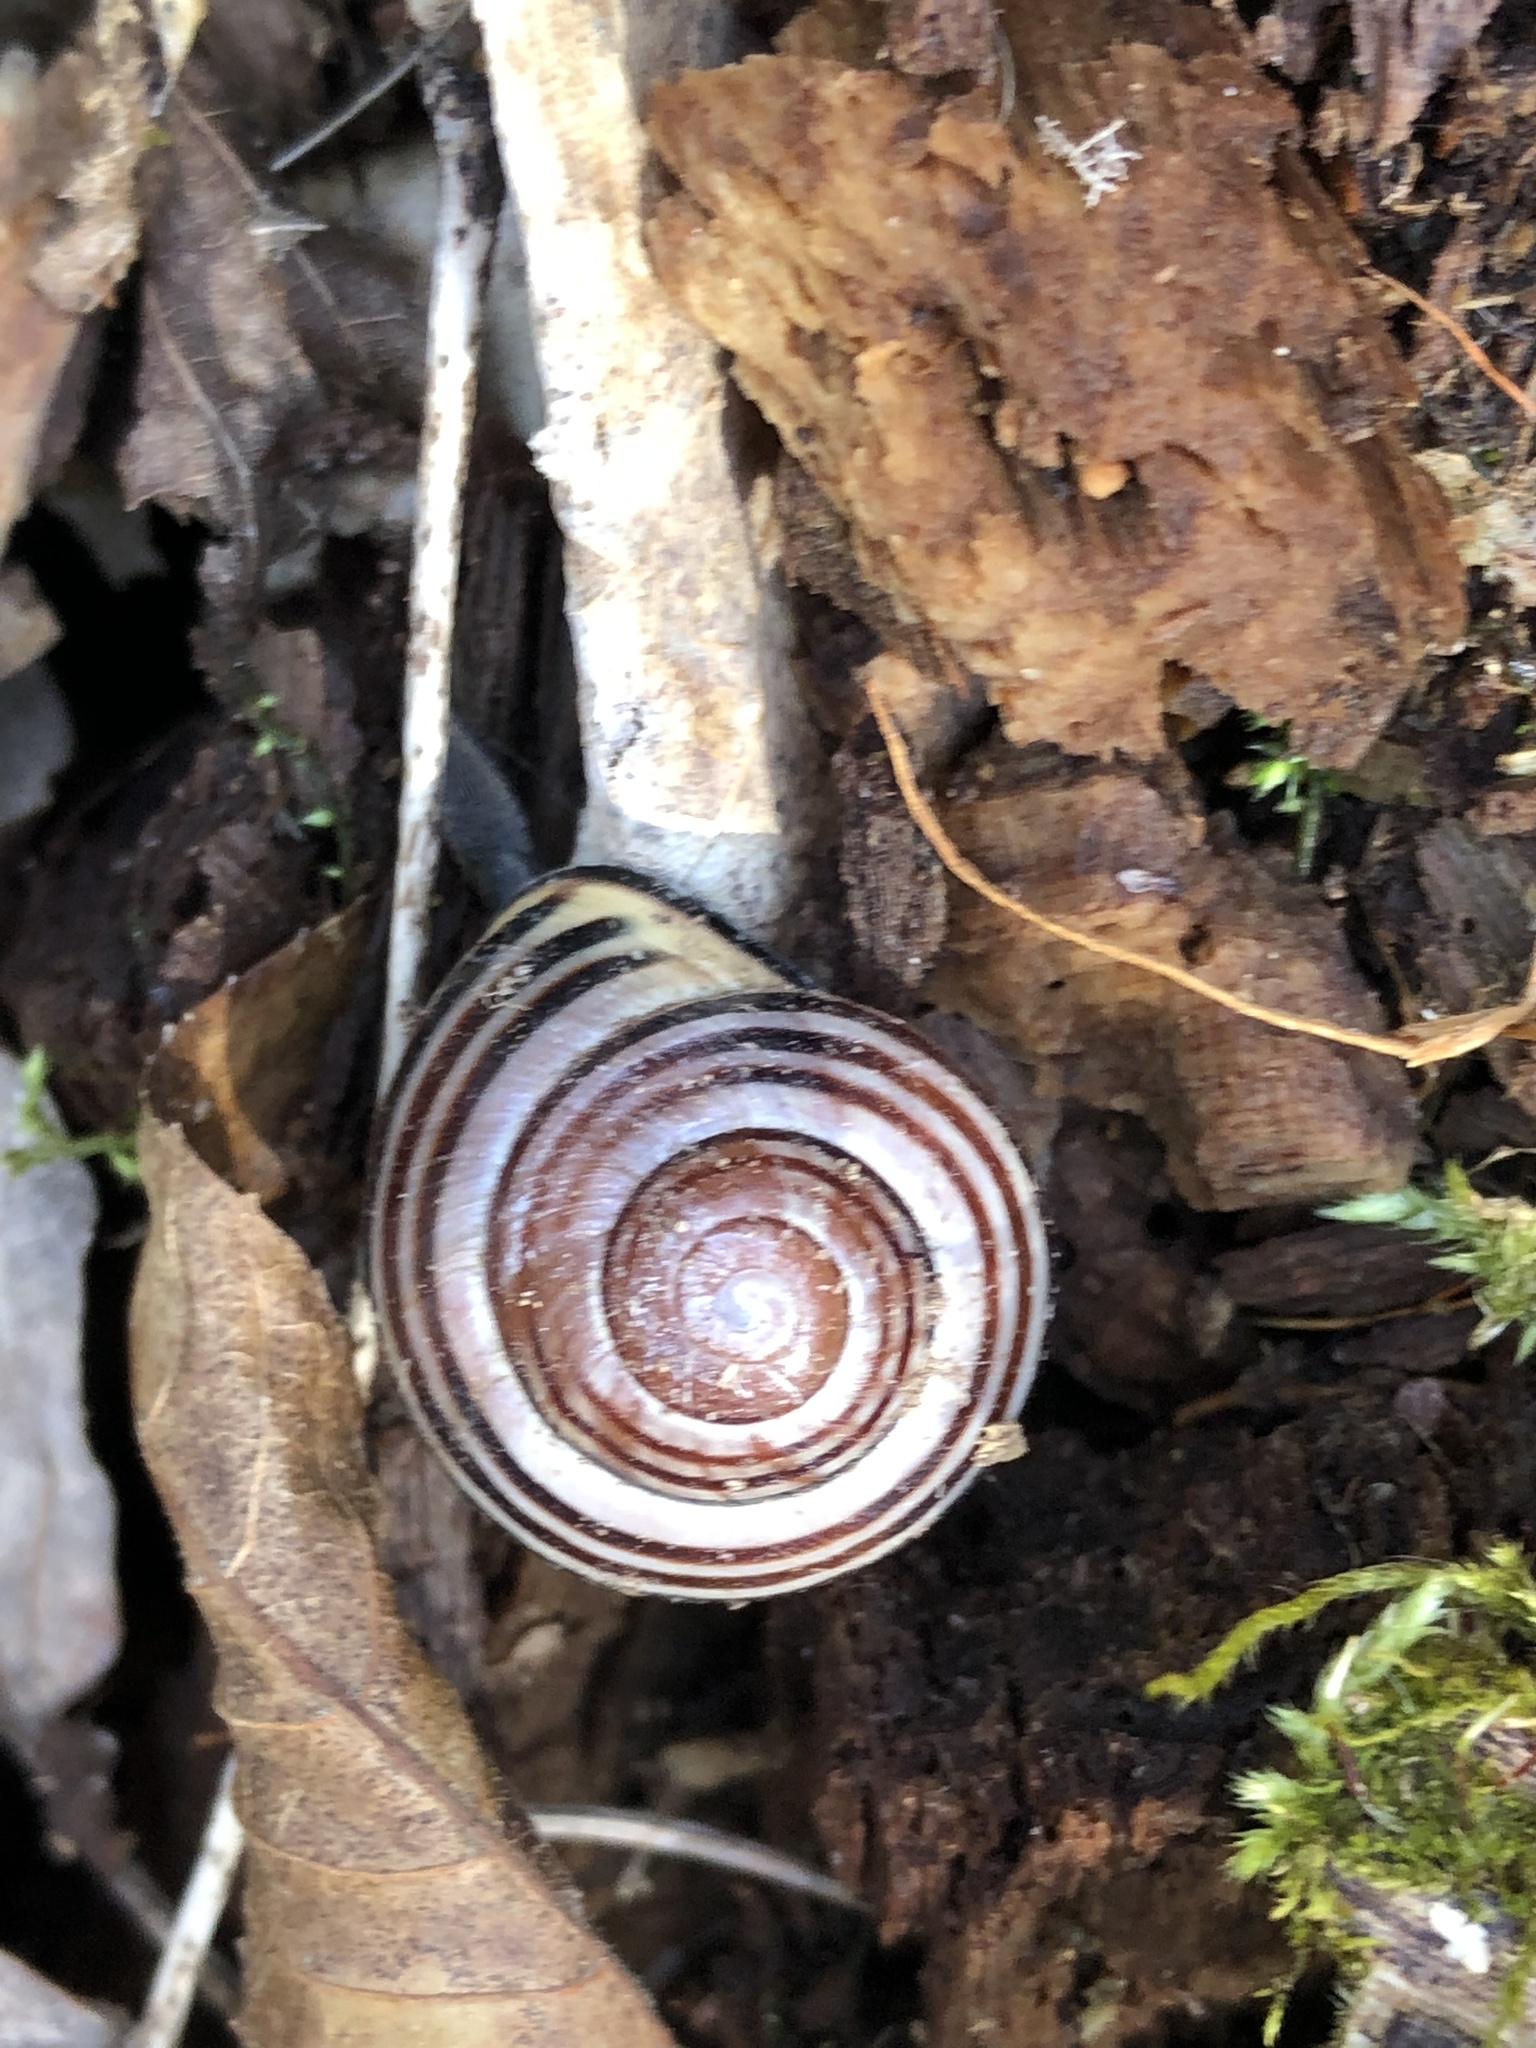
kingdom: Animalia
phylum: Mollusca
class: Gastropoda
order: Stylommatophora
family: Helicidae
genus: Cepaea
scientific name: Cepaea nemoralis
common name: Grovesnail
